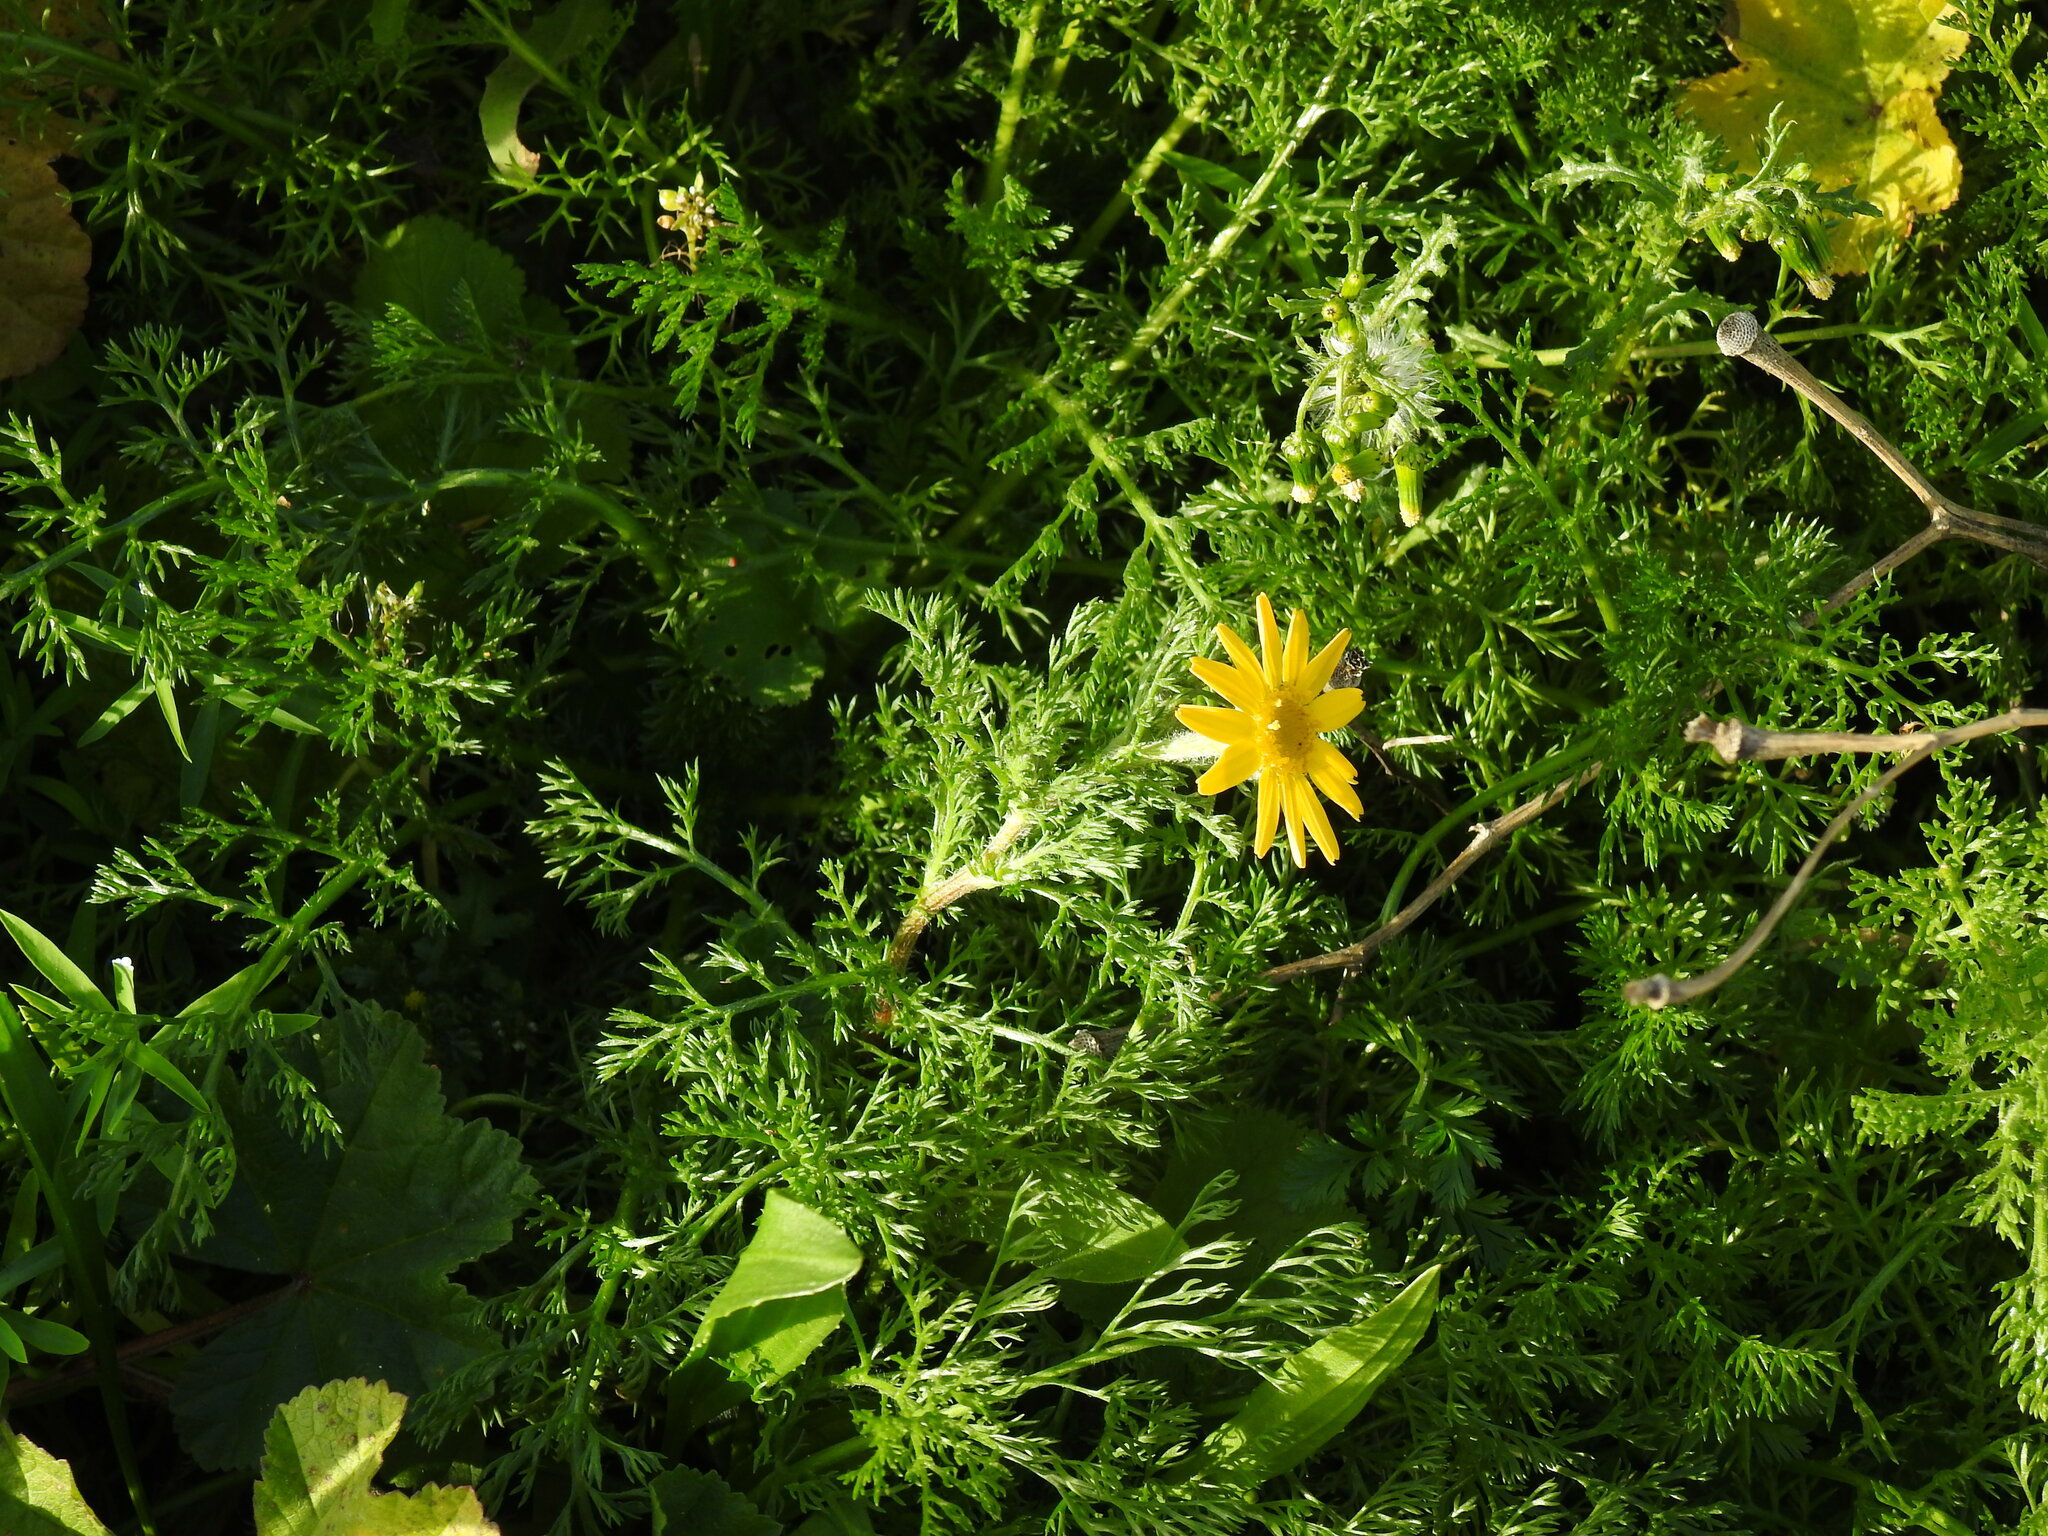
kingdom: Plantae
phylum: Tracheophyta
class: Magnoliopsida
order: Asterales
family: Asteraceae
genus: Anacyclus
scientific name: Anacyclus radiatus
